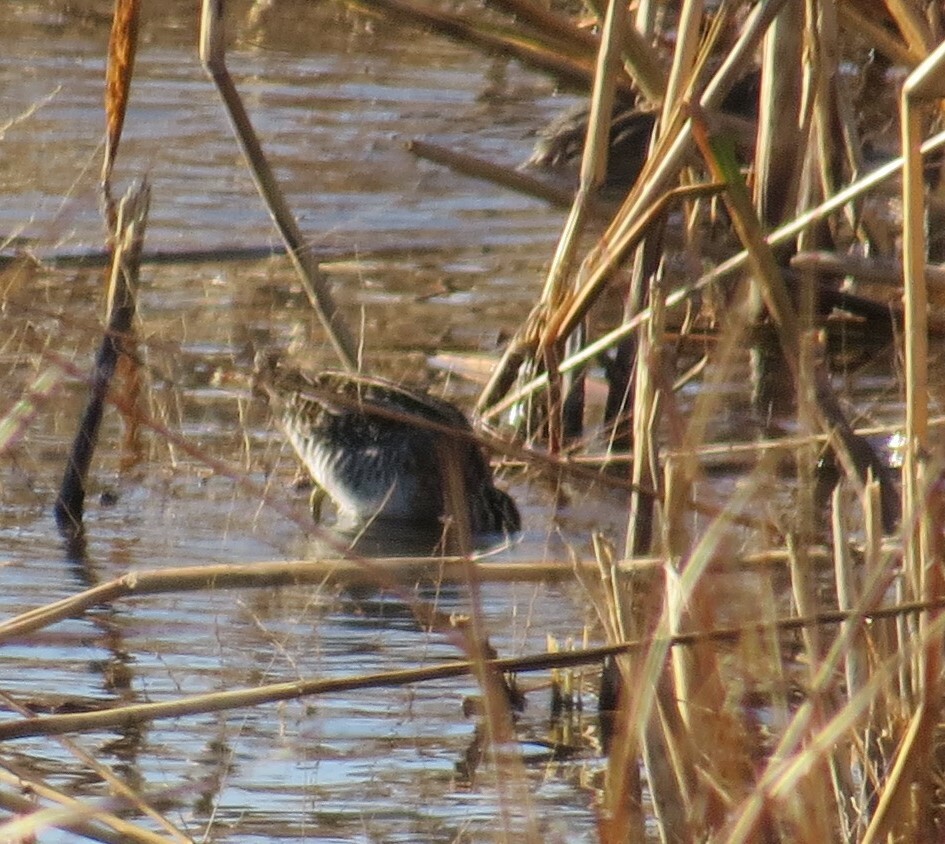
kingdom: Animalia
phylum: Chordata
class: Aves
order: Charadriiformes
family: Scolopacidae
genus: Gallinago
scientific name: Gallinago delicata
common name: Wilson's snipe
